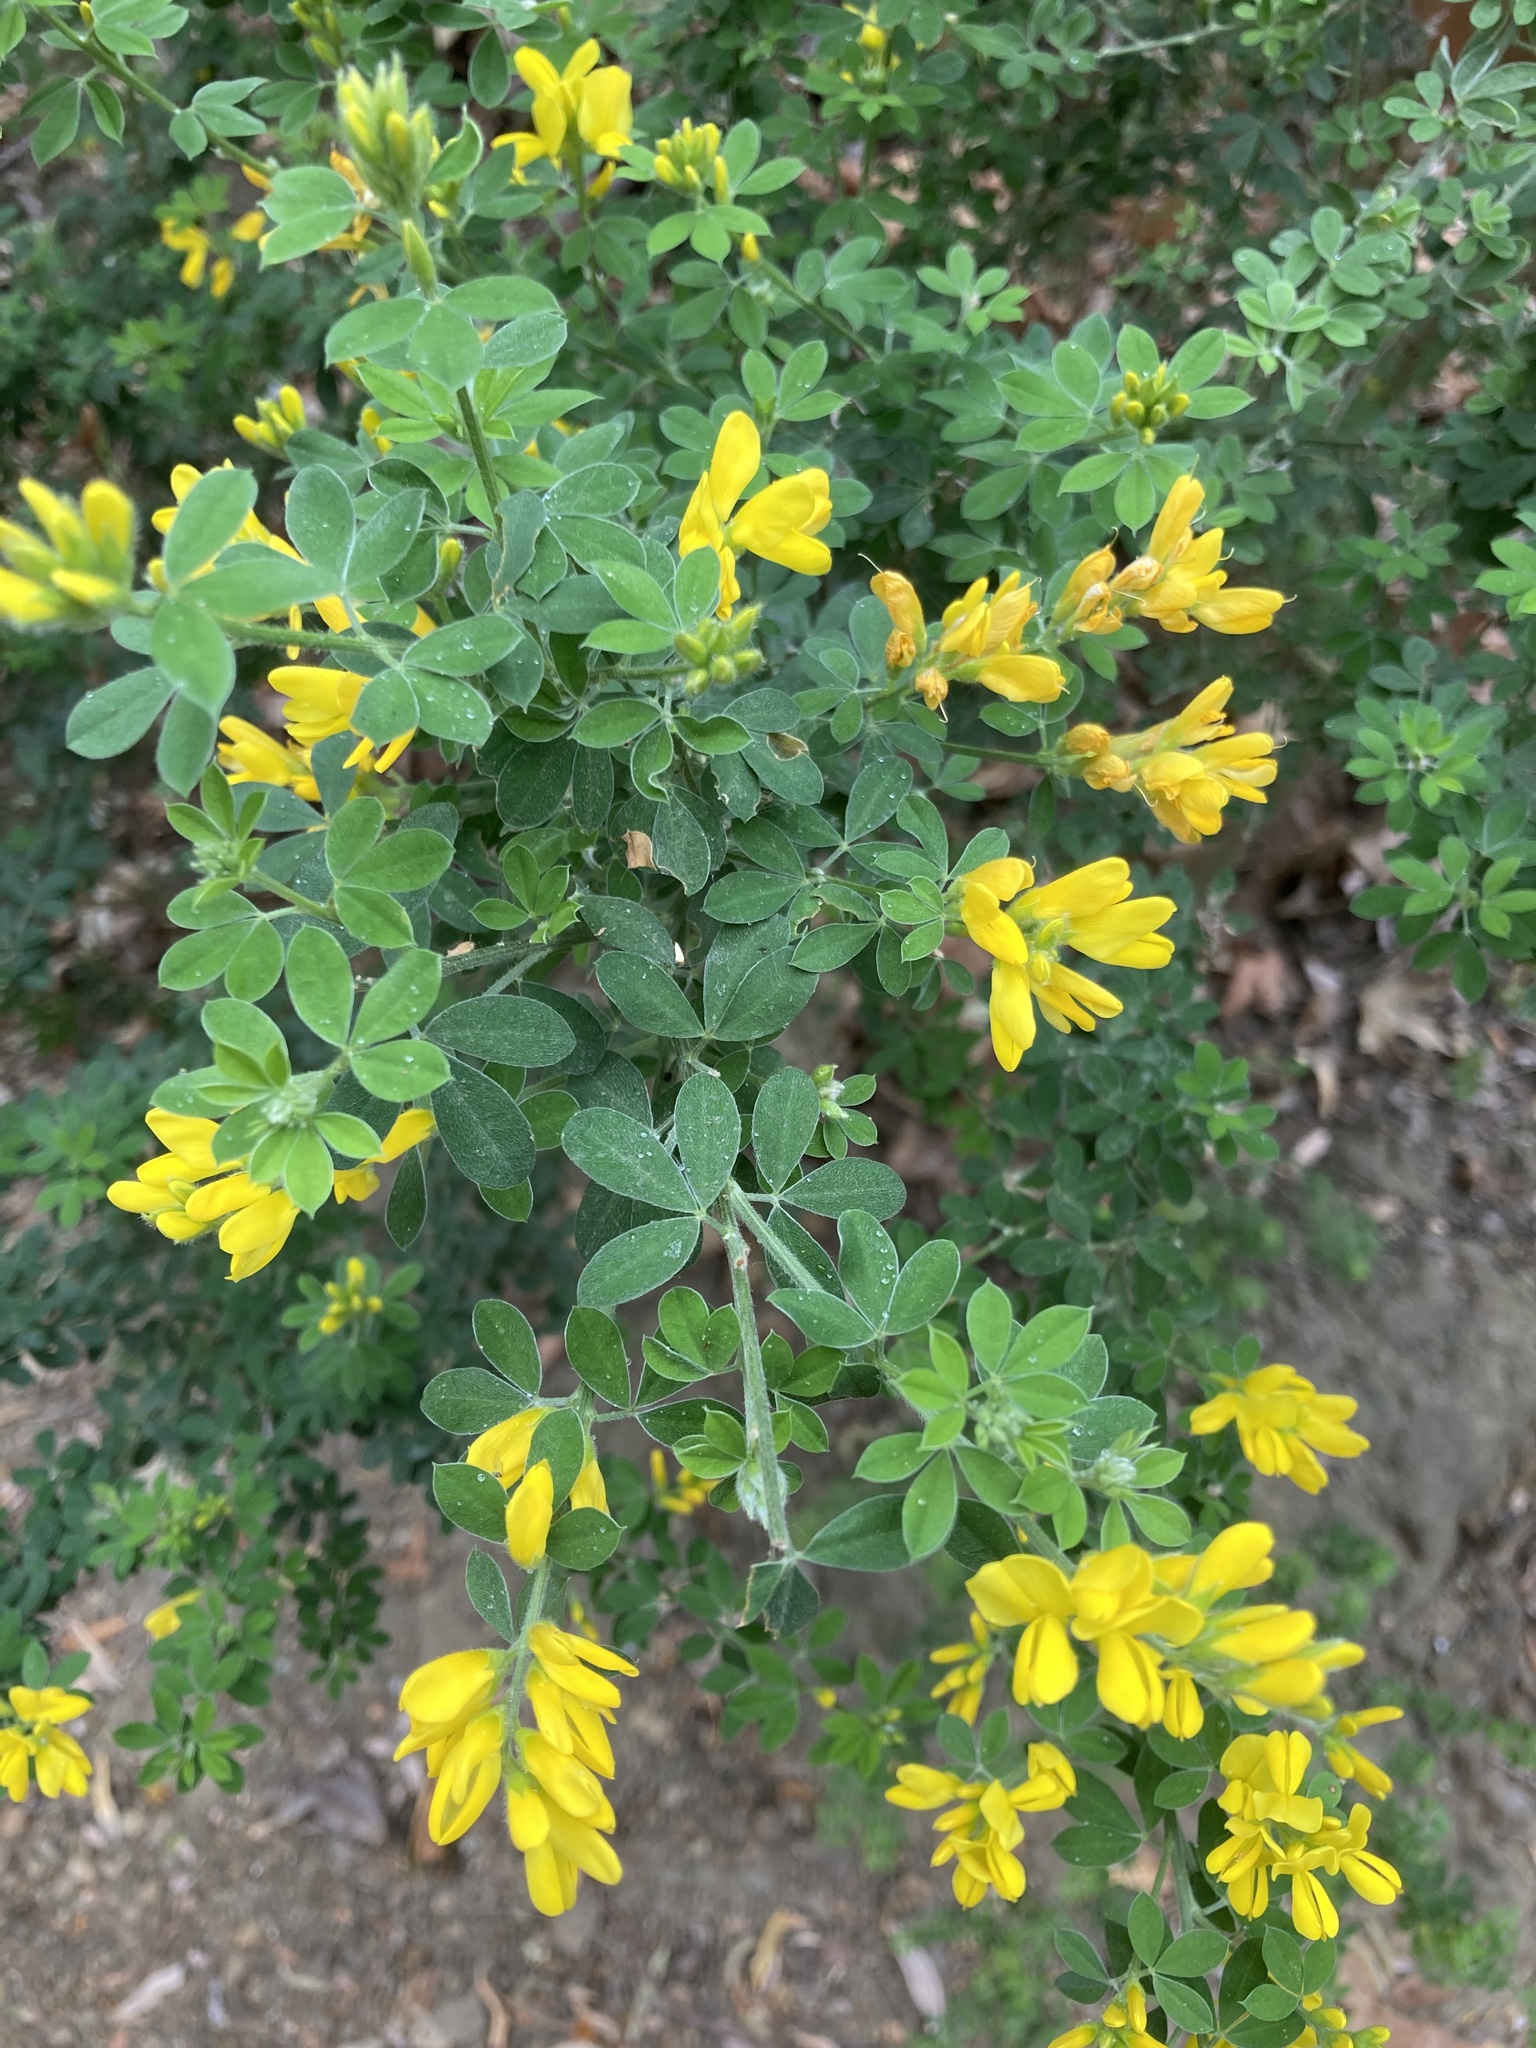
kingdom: Plantae
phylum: Tracheophyta
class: Magnoliopsida
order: Fabales
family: Fabaceae
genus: Genista
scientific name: Genista monspessulana
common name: Montpellier broom
